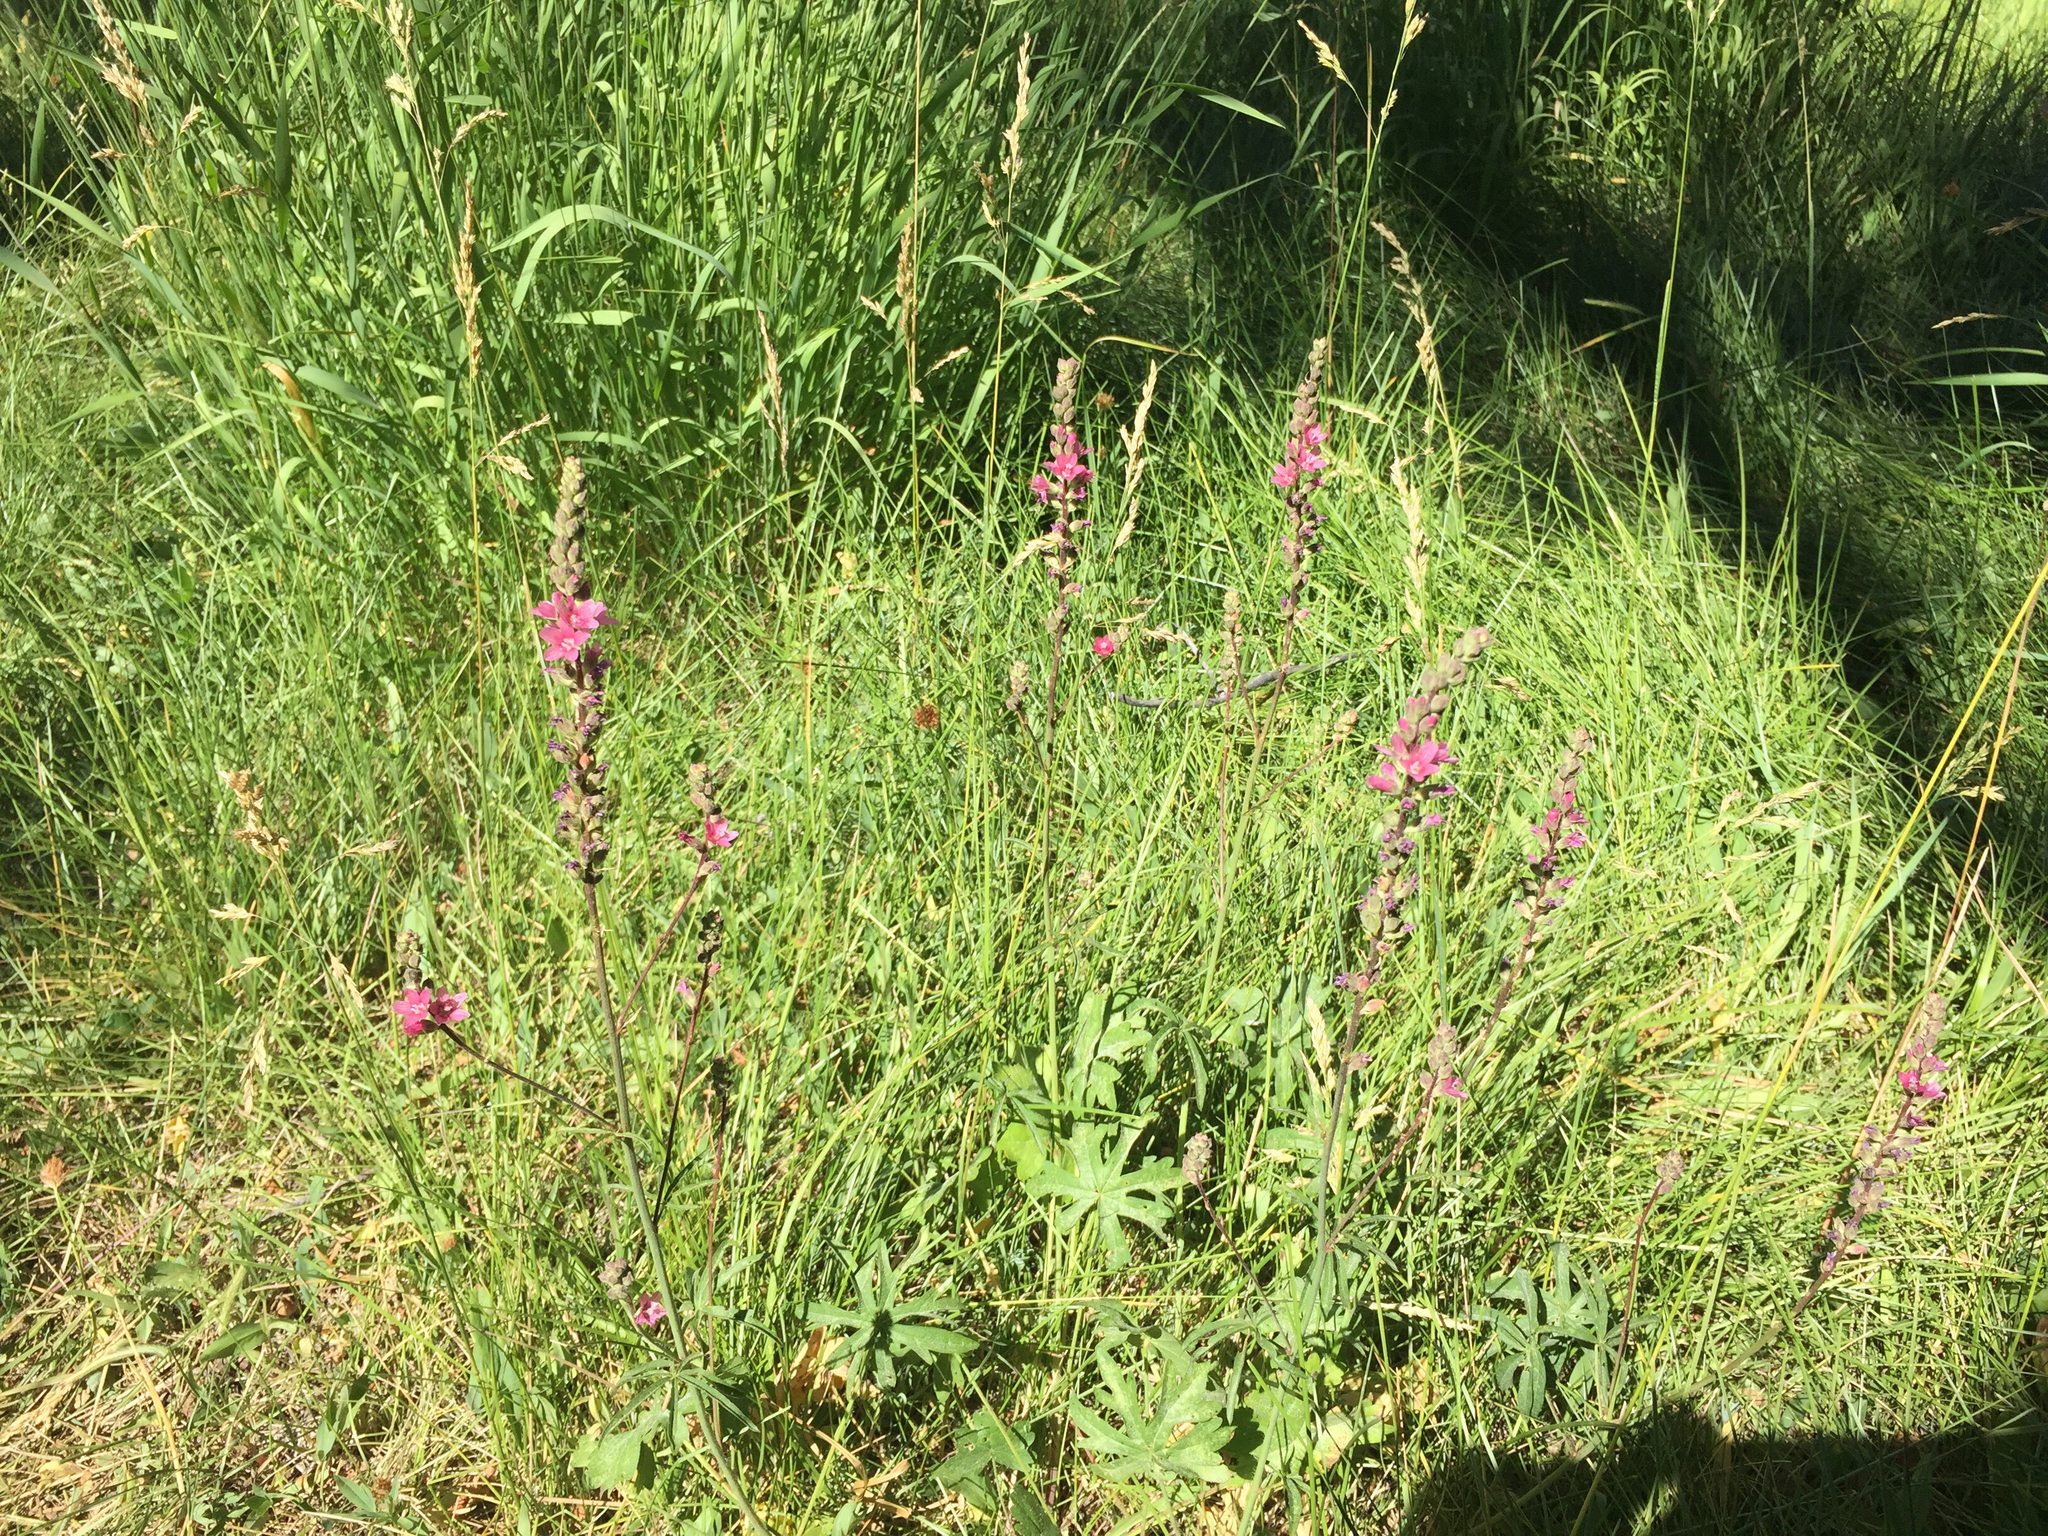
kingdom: Plantae
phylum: Tracheophyta
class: Magnoliopsida
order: Malvales
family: Malvaceae
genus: Sidalcea
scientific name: Sidalcea oregana
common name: Oregon checker-mallow
